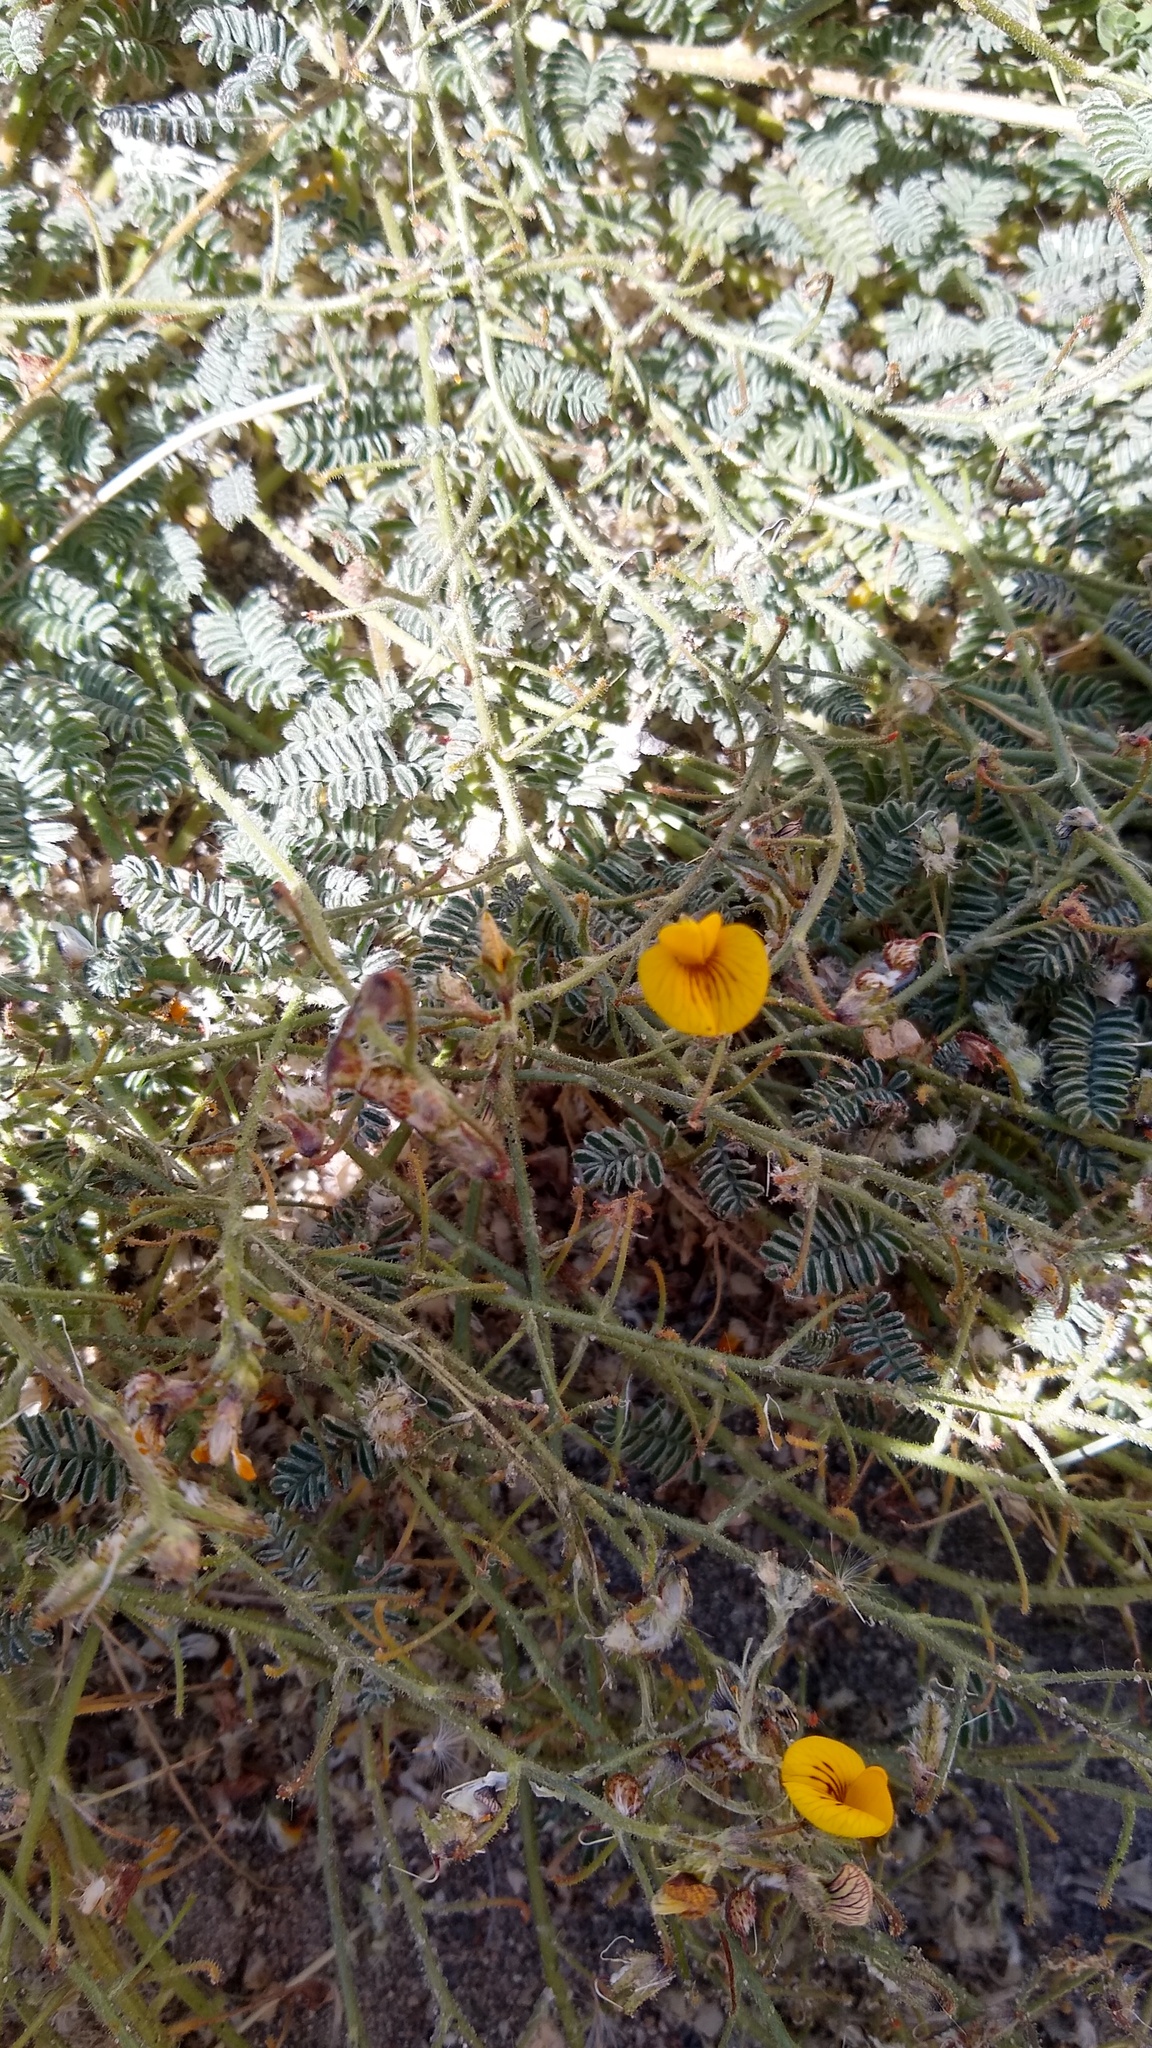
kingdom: Plantae
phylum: Tracheophyta
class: Magnoliopsida
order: Fabales
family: Fabaceae
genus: Adesmia
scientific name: Adesmia corymbosa
